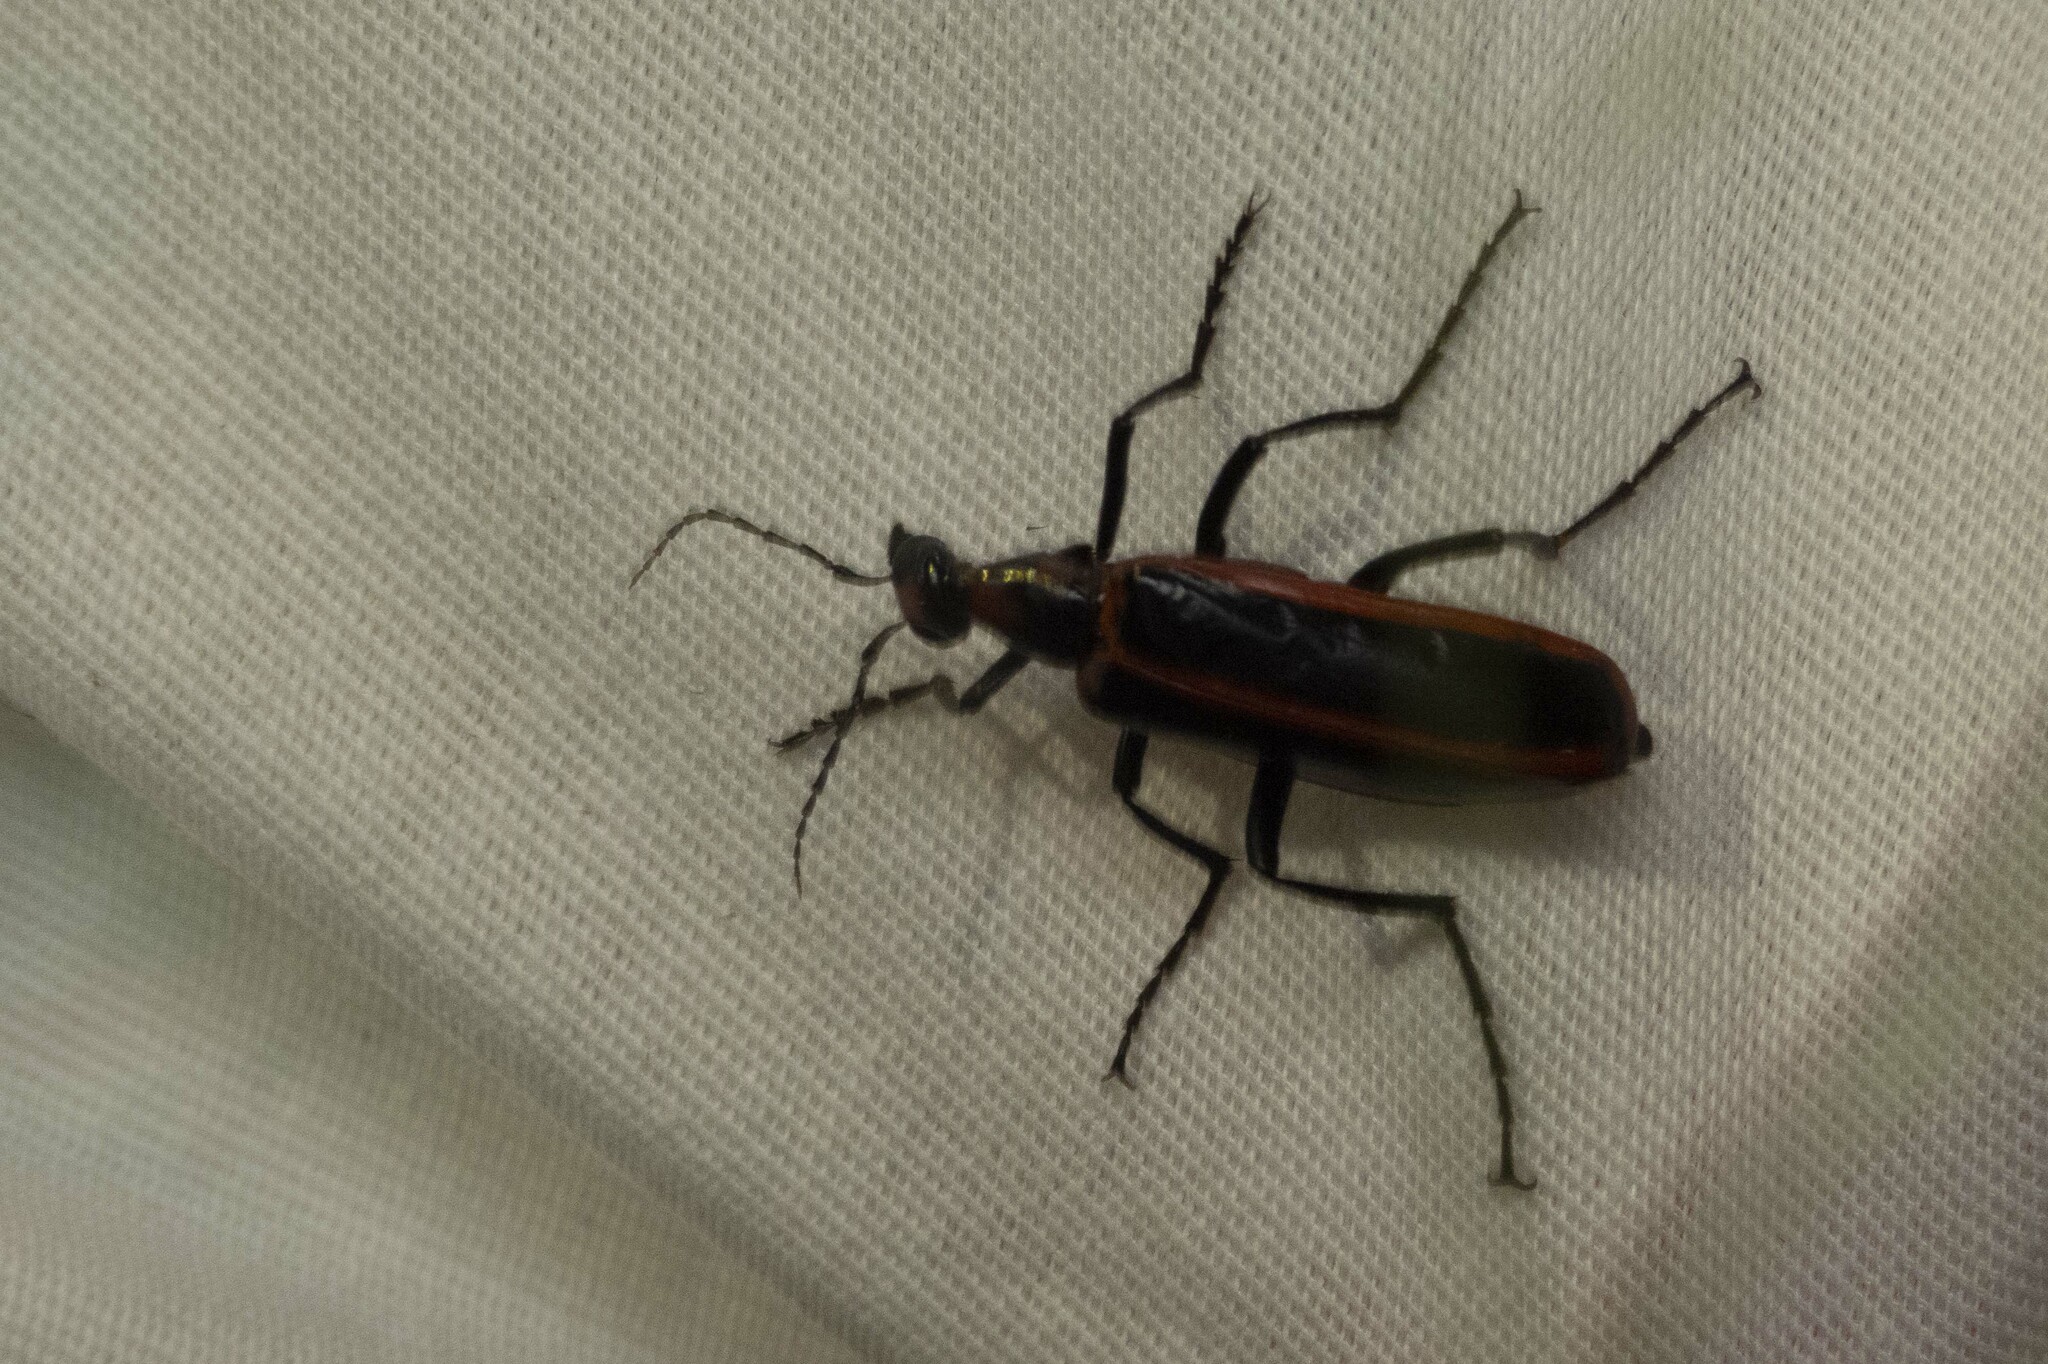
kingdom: Animalia
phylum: Arthropoda
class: Insecta
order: Coleoptera
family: Meloidae
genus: Pyrota
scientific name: Pyrota akhurstiana
